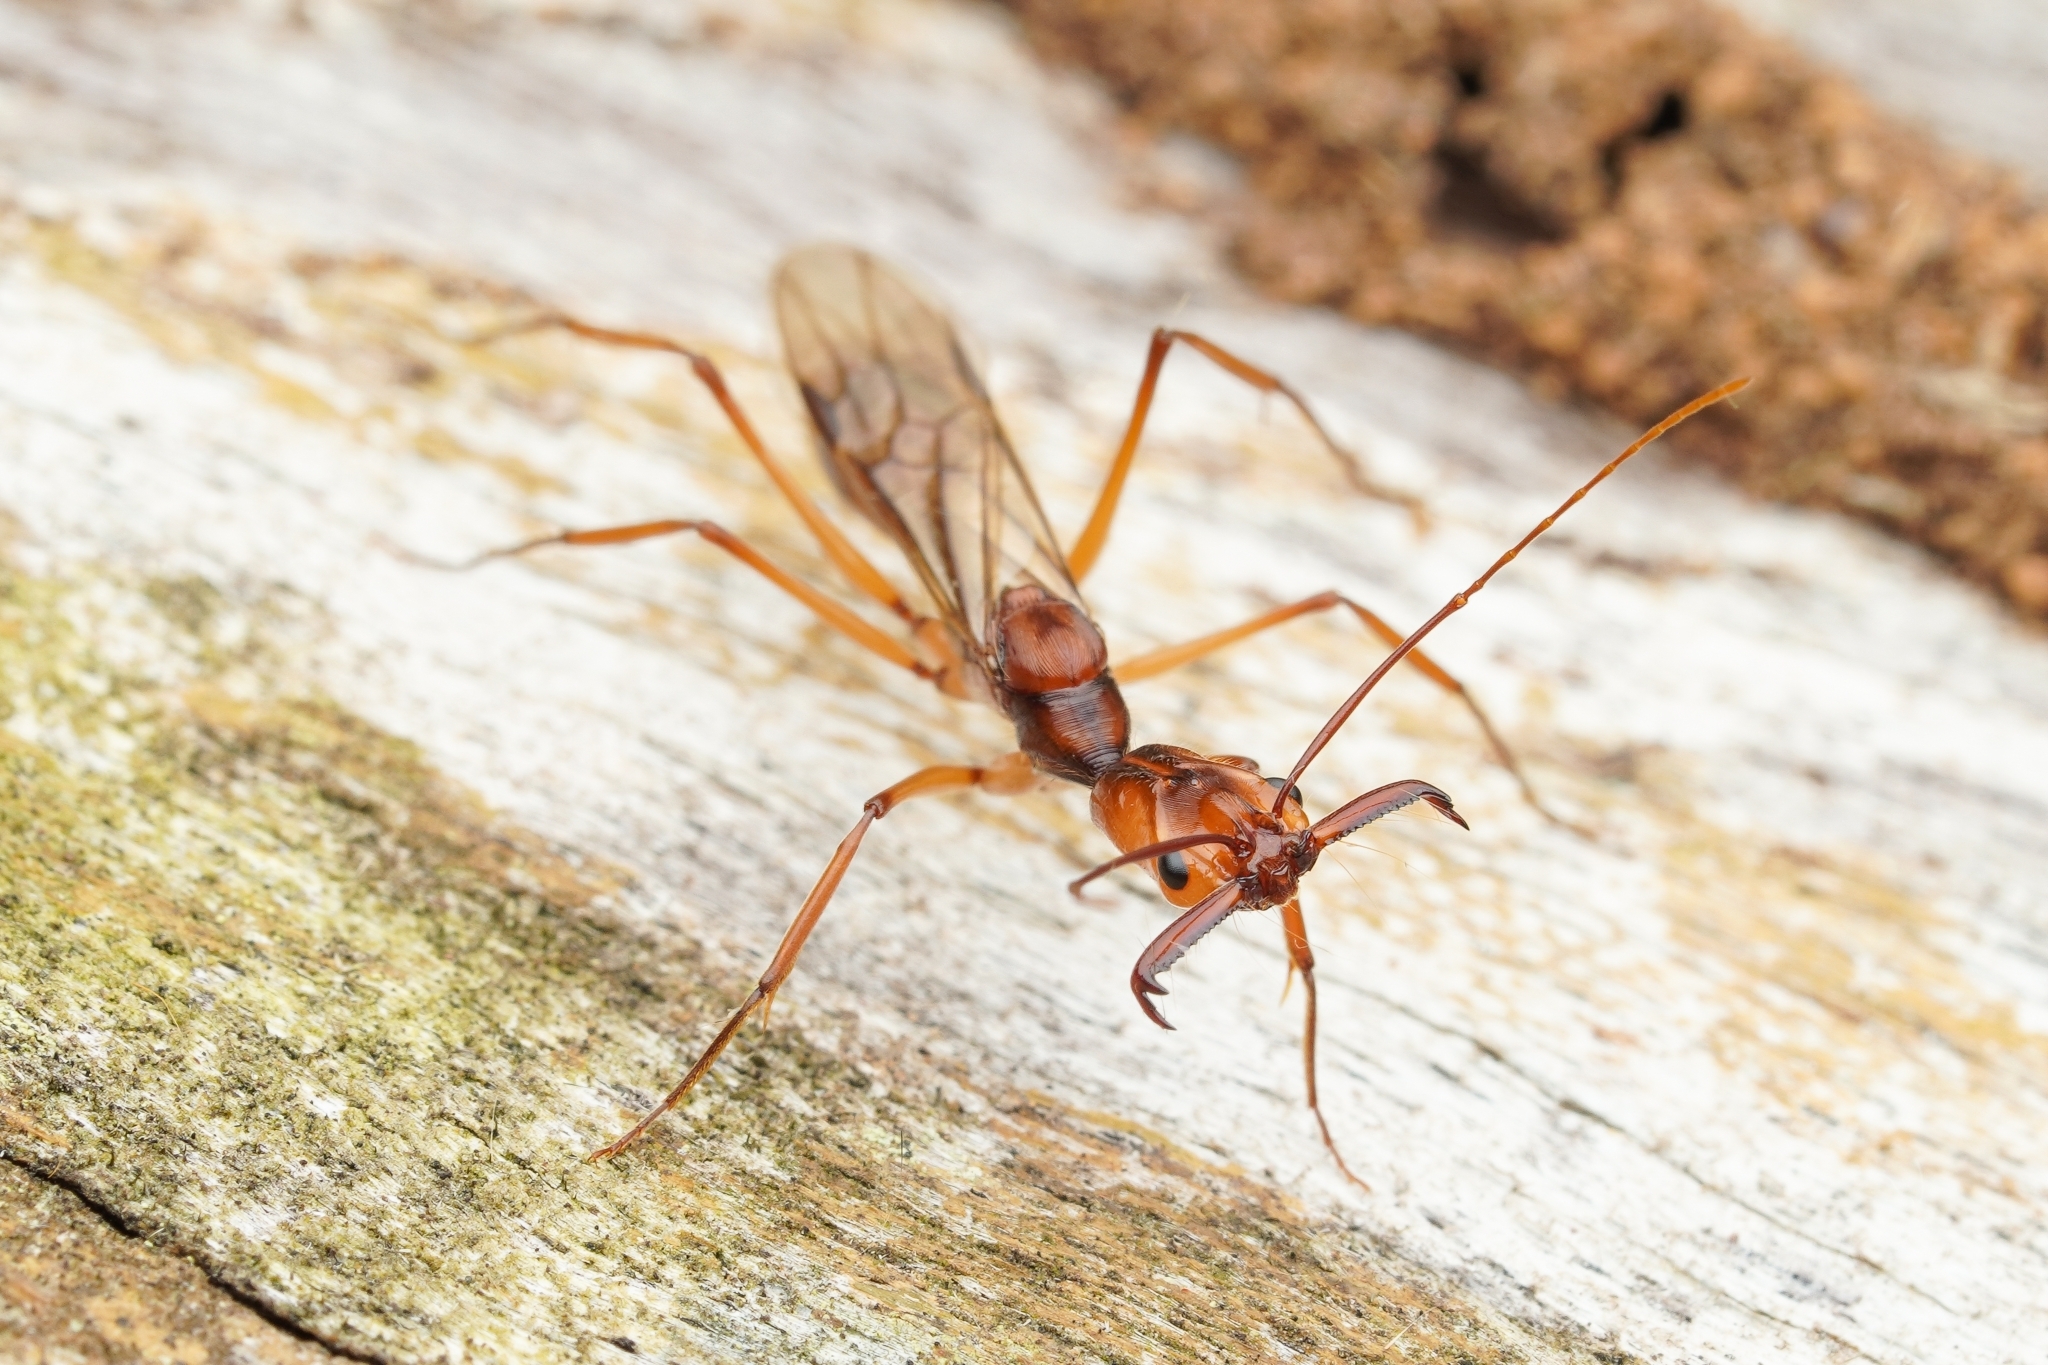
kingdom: Animalia
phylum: Arthropoda
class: Insecta
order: Hymenoptera
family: Formicidae
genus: Odontomachus
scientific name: Odontomachus hastatus
